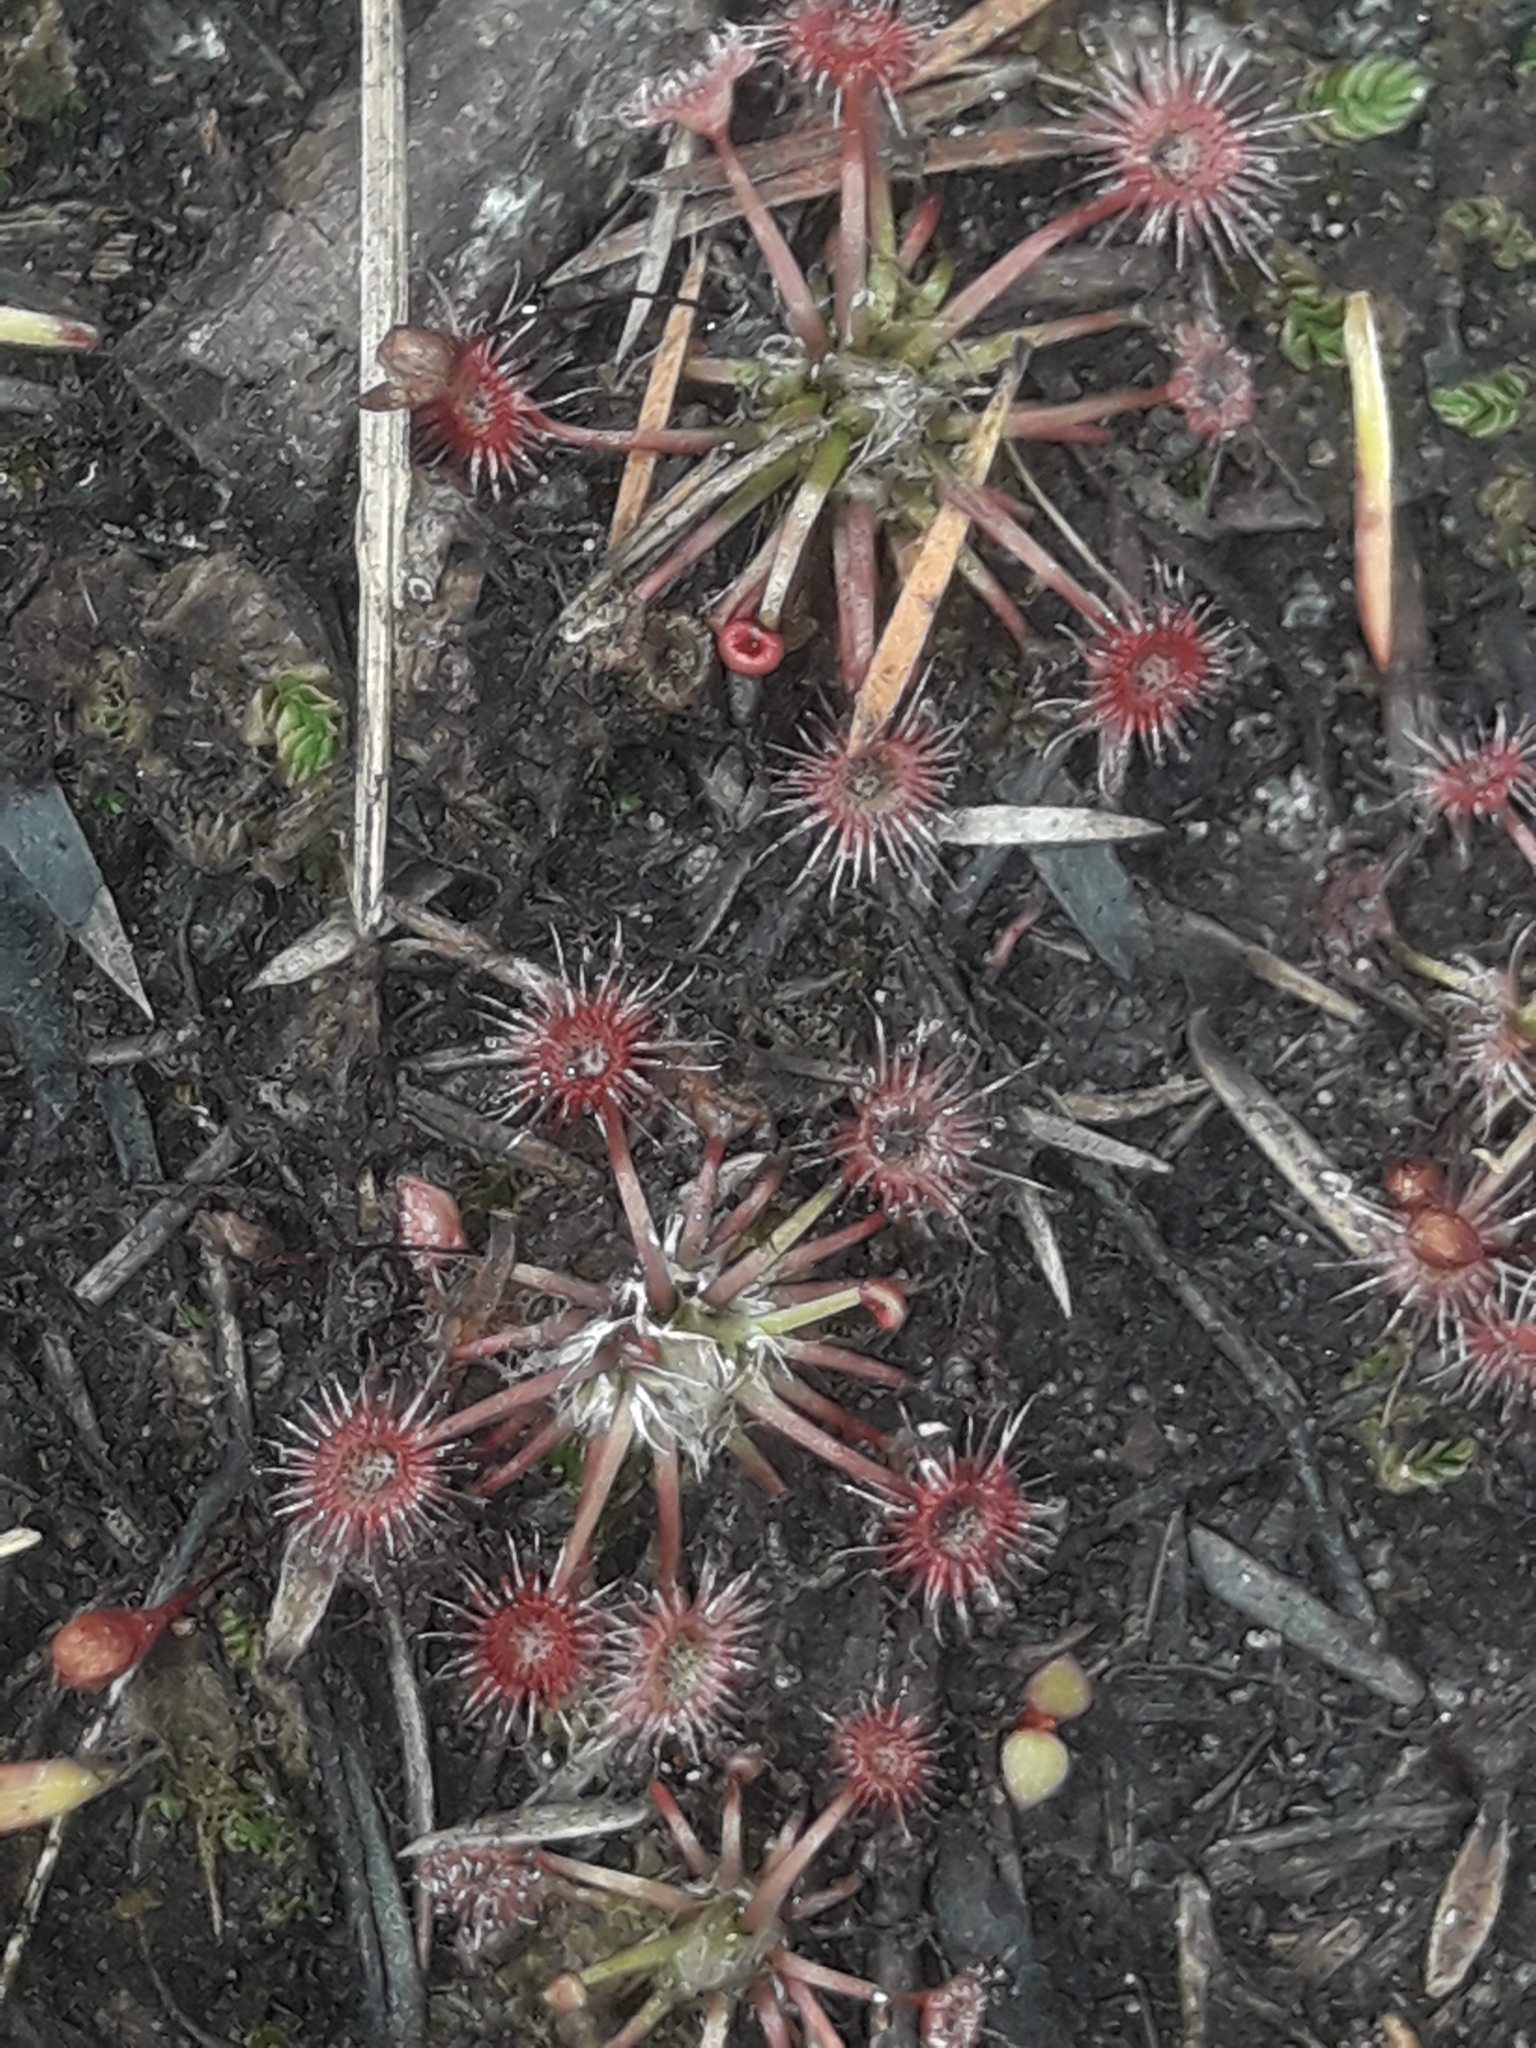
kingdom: Plantae
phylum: Tracheophyta
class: Magnoliopsida
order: Caryophyllales
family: Droseraceae
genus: Drosera
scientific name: Drosera pygmaea
